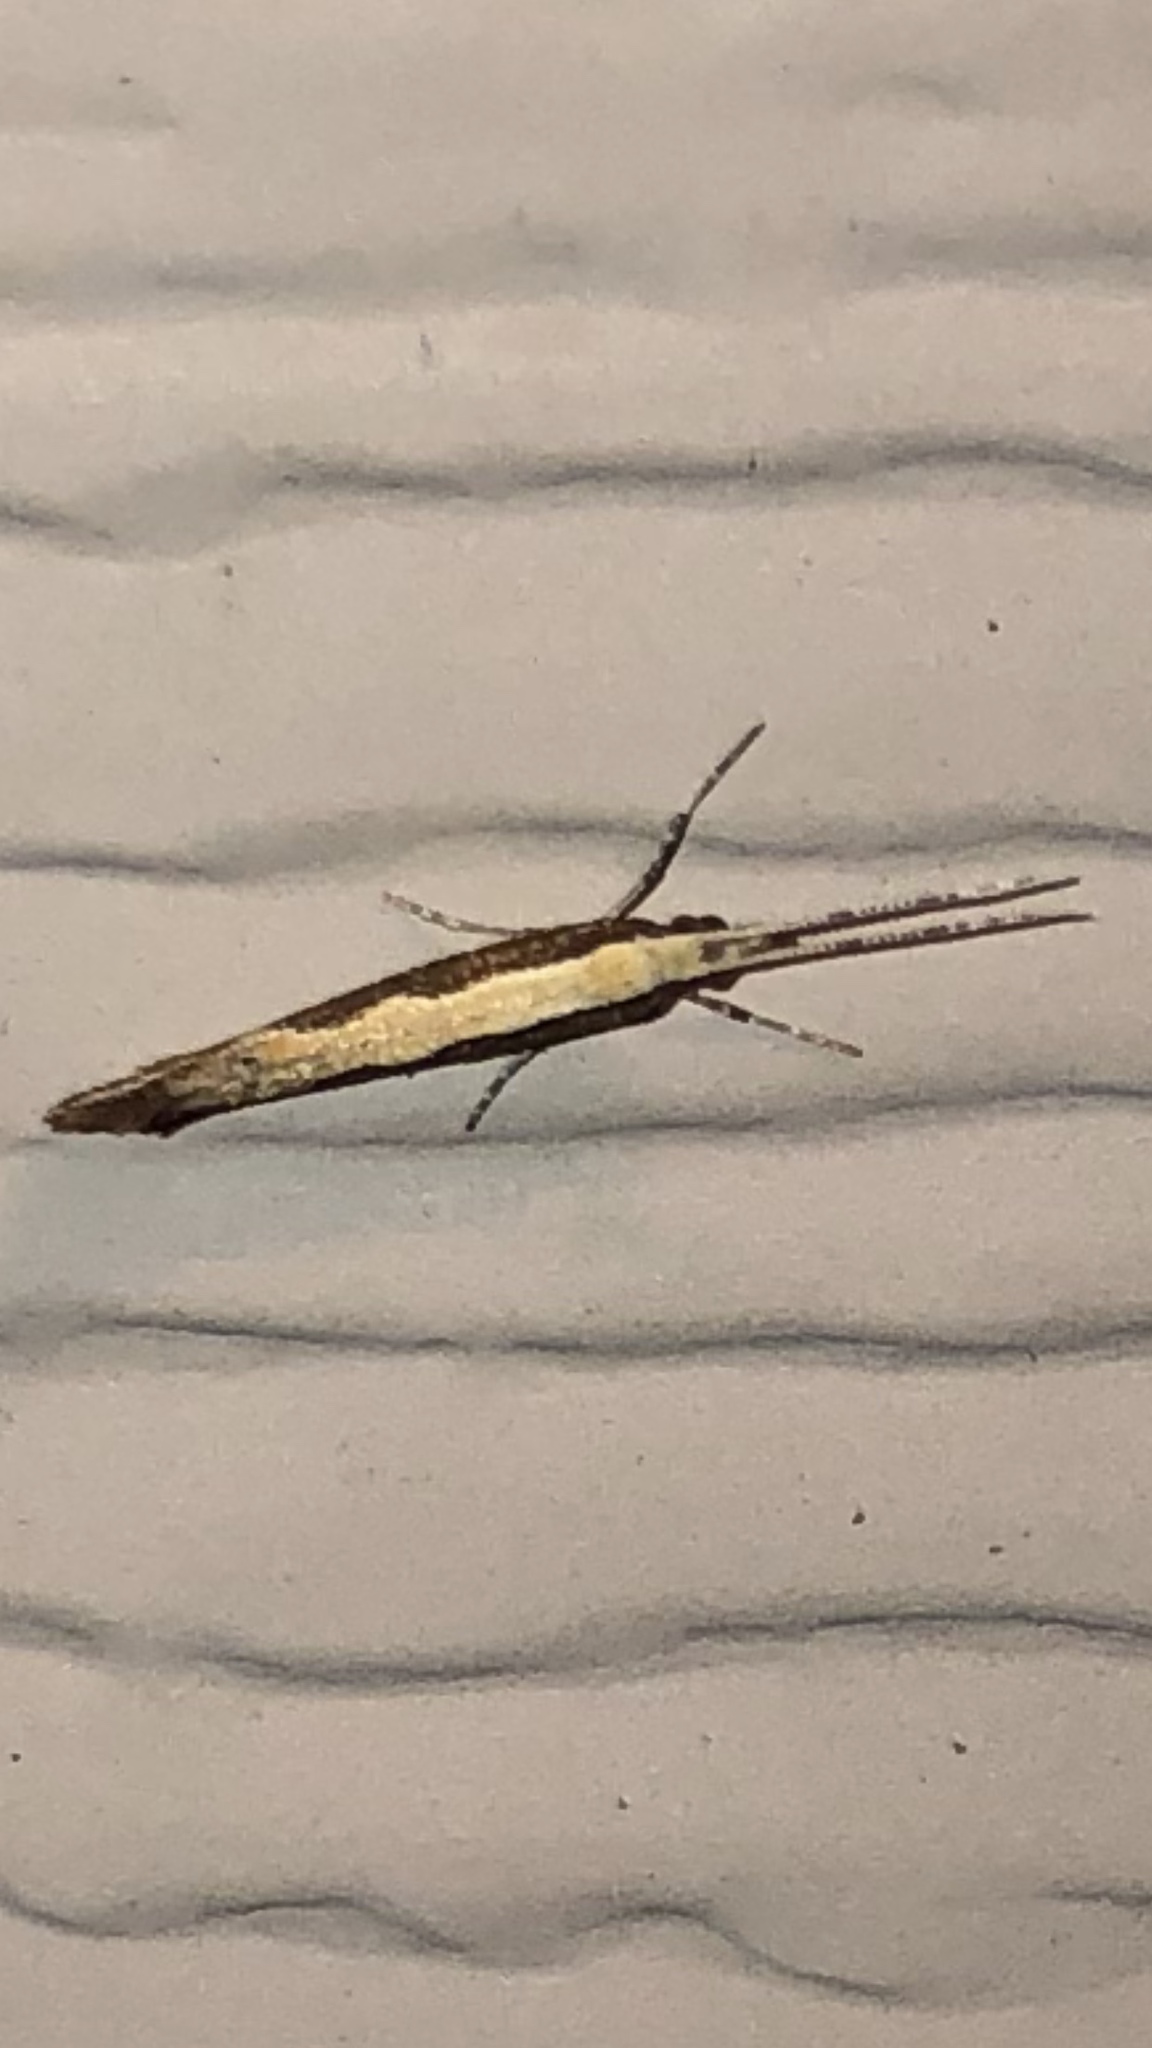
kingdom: Animalia
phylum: Arthropoda
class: Insecta
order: Lepidoptera
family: Plutellidae
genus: Plutella
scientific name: Plutella xylostella
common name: Diamond-back moth
